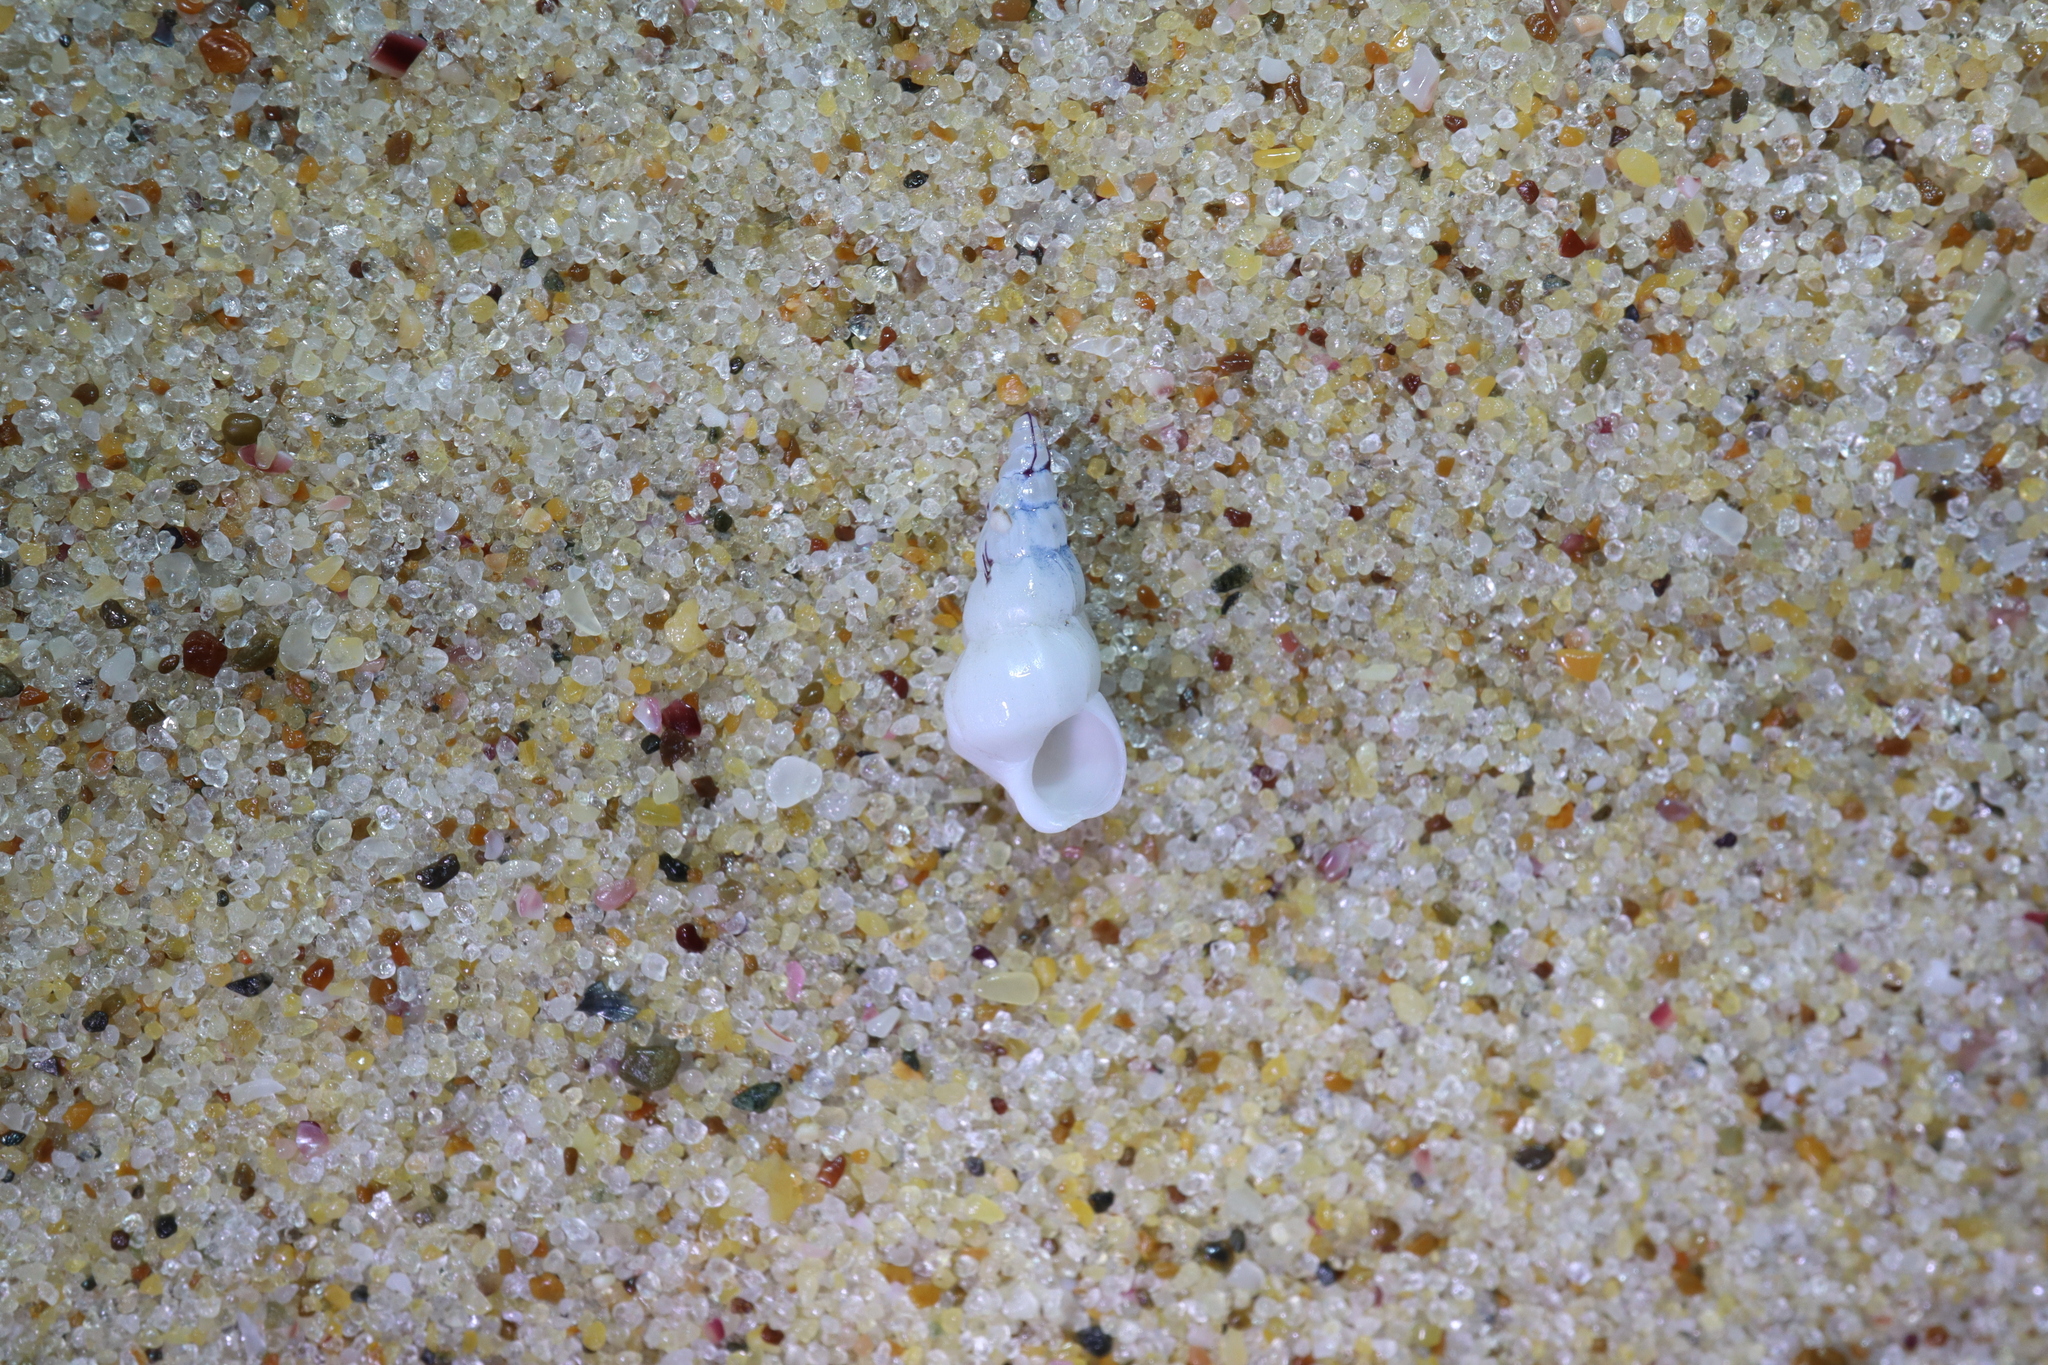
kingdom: Animalia
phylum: Mollusca
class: Gastropoda
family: Epitoniidae
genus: Opalia
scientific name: Opalia ballinensis
